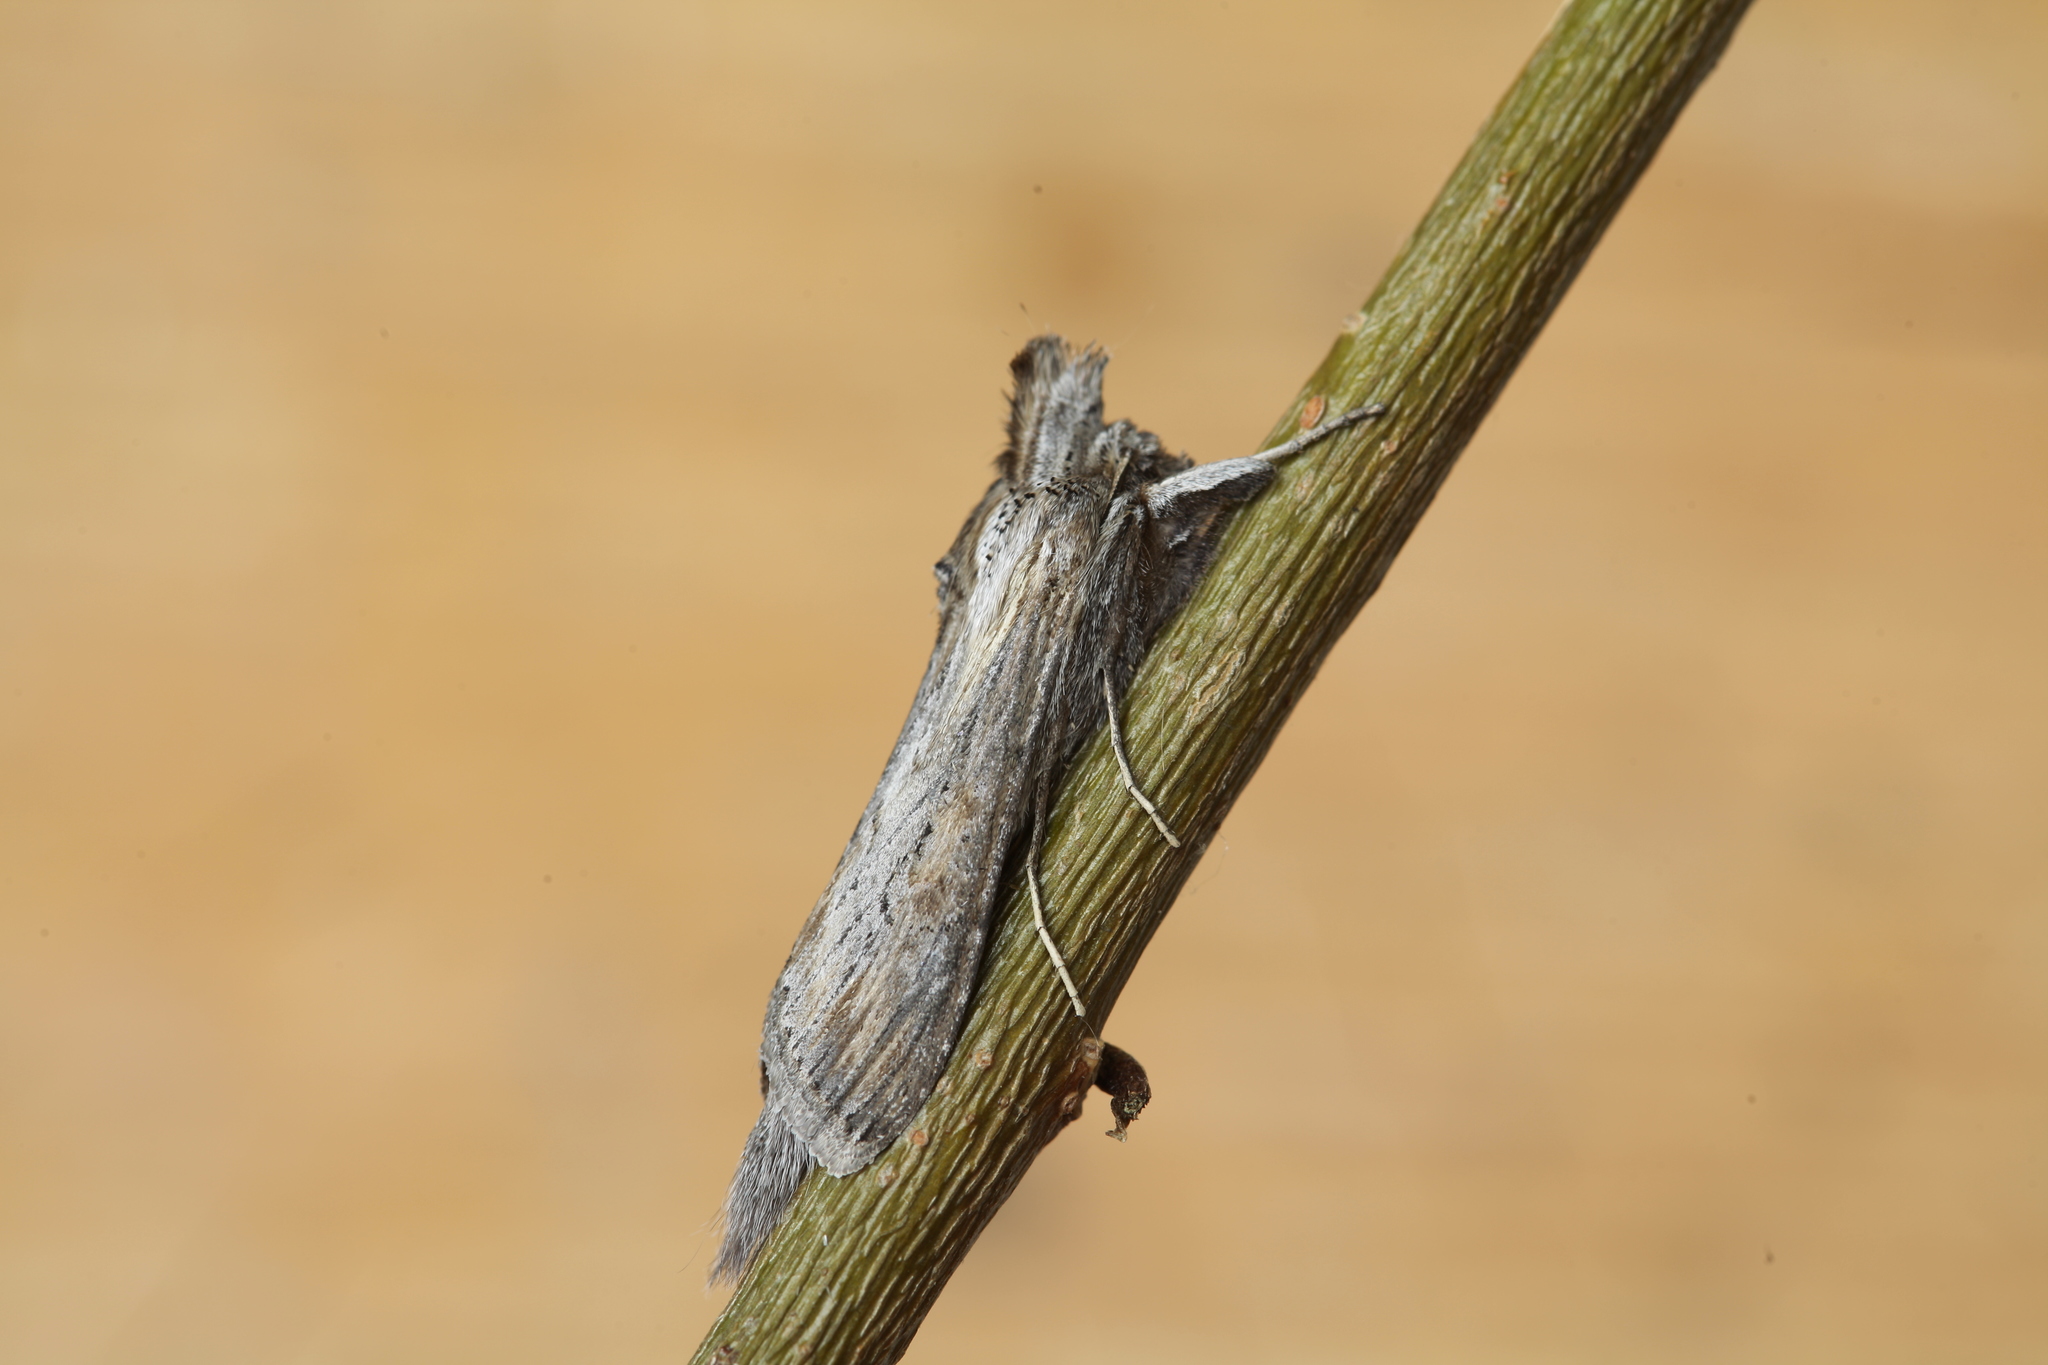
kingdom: Animalia
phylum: Arthropoda
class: Insecta
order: Lepidoptera
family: Noctuidae
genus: Cucullia
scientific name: Cucullia mixta
